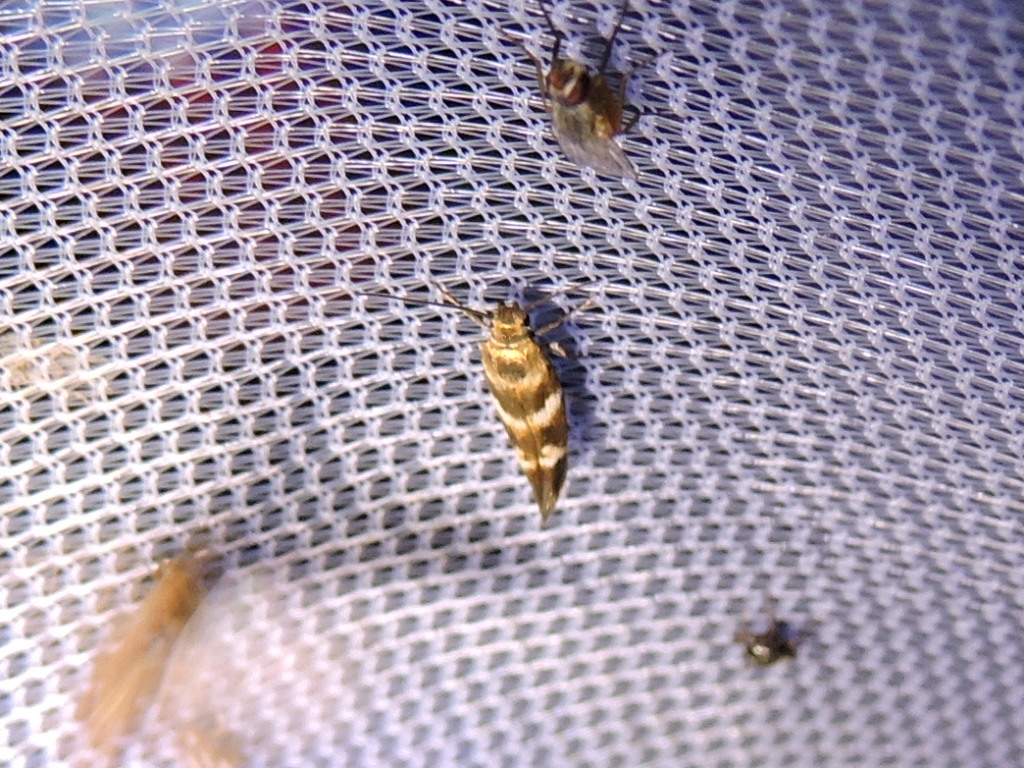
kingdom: Animalia
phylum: Arthropoda
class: Insecta
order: Lepidoptera
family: Scythrididae
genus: Scythris
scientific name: Scythris trivinctella
